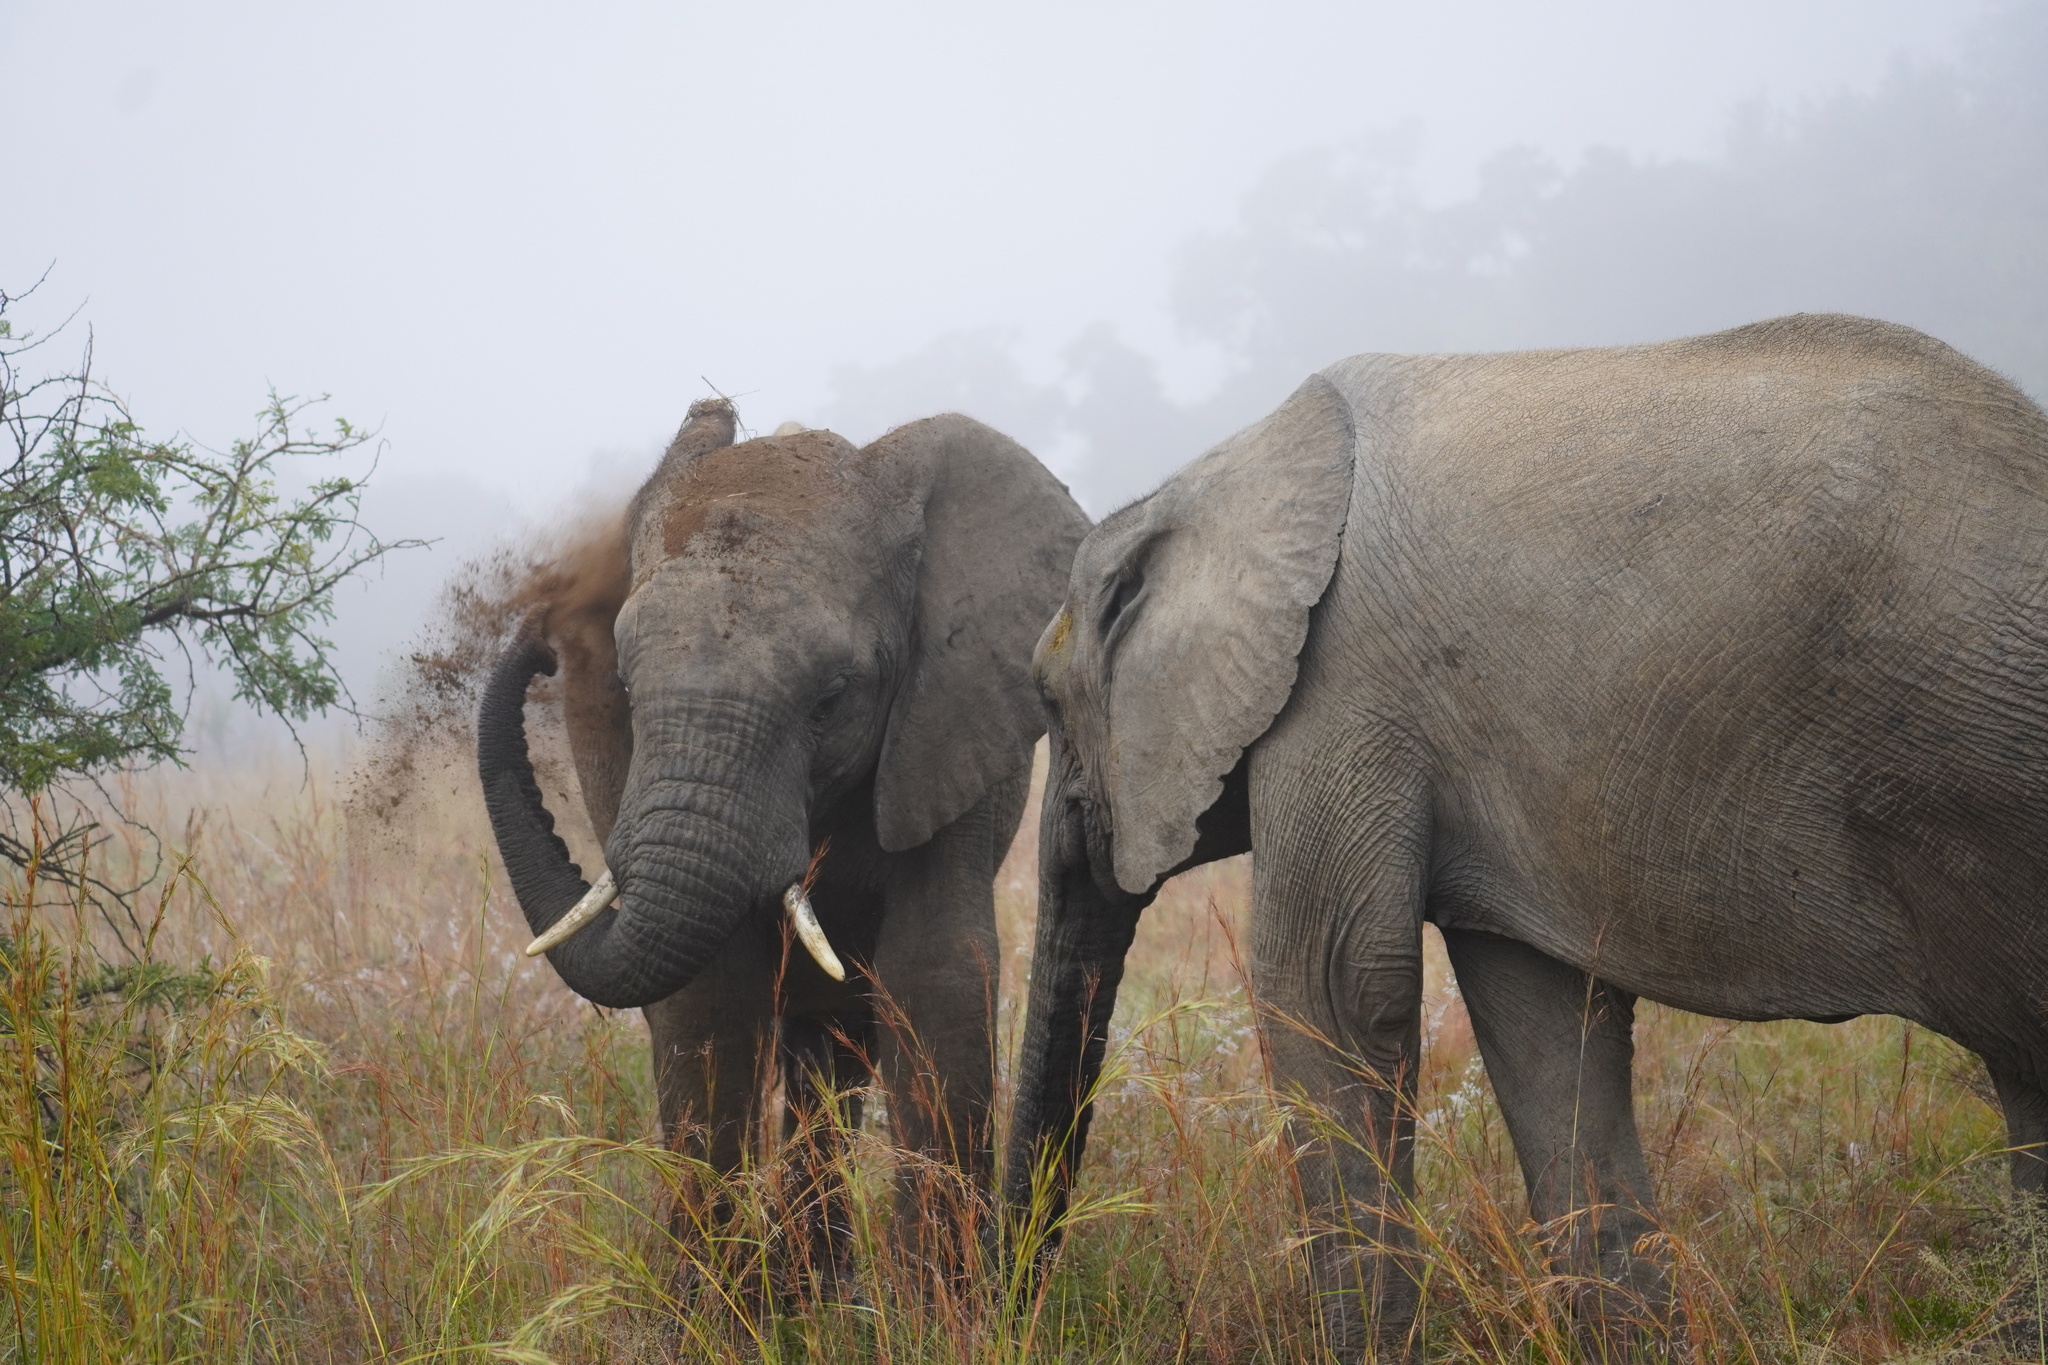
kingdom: Animalia
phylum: Chordata
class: Mammalia
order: Proboscidea
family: Elephantidae
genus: Loxodonta
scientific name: Loxodonta africana
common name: African elephant
